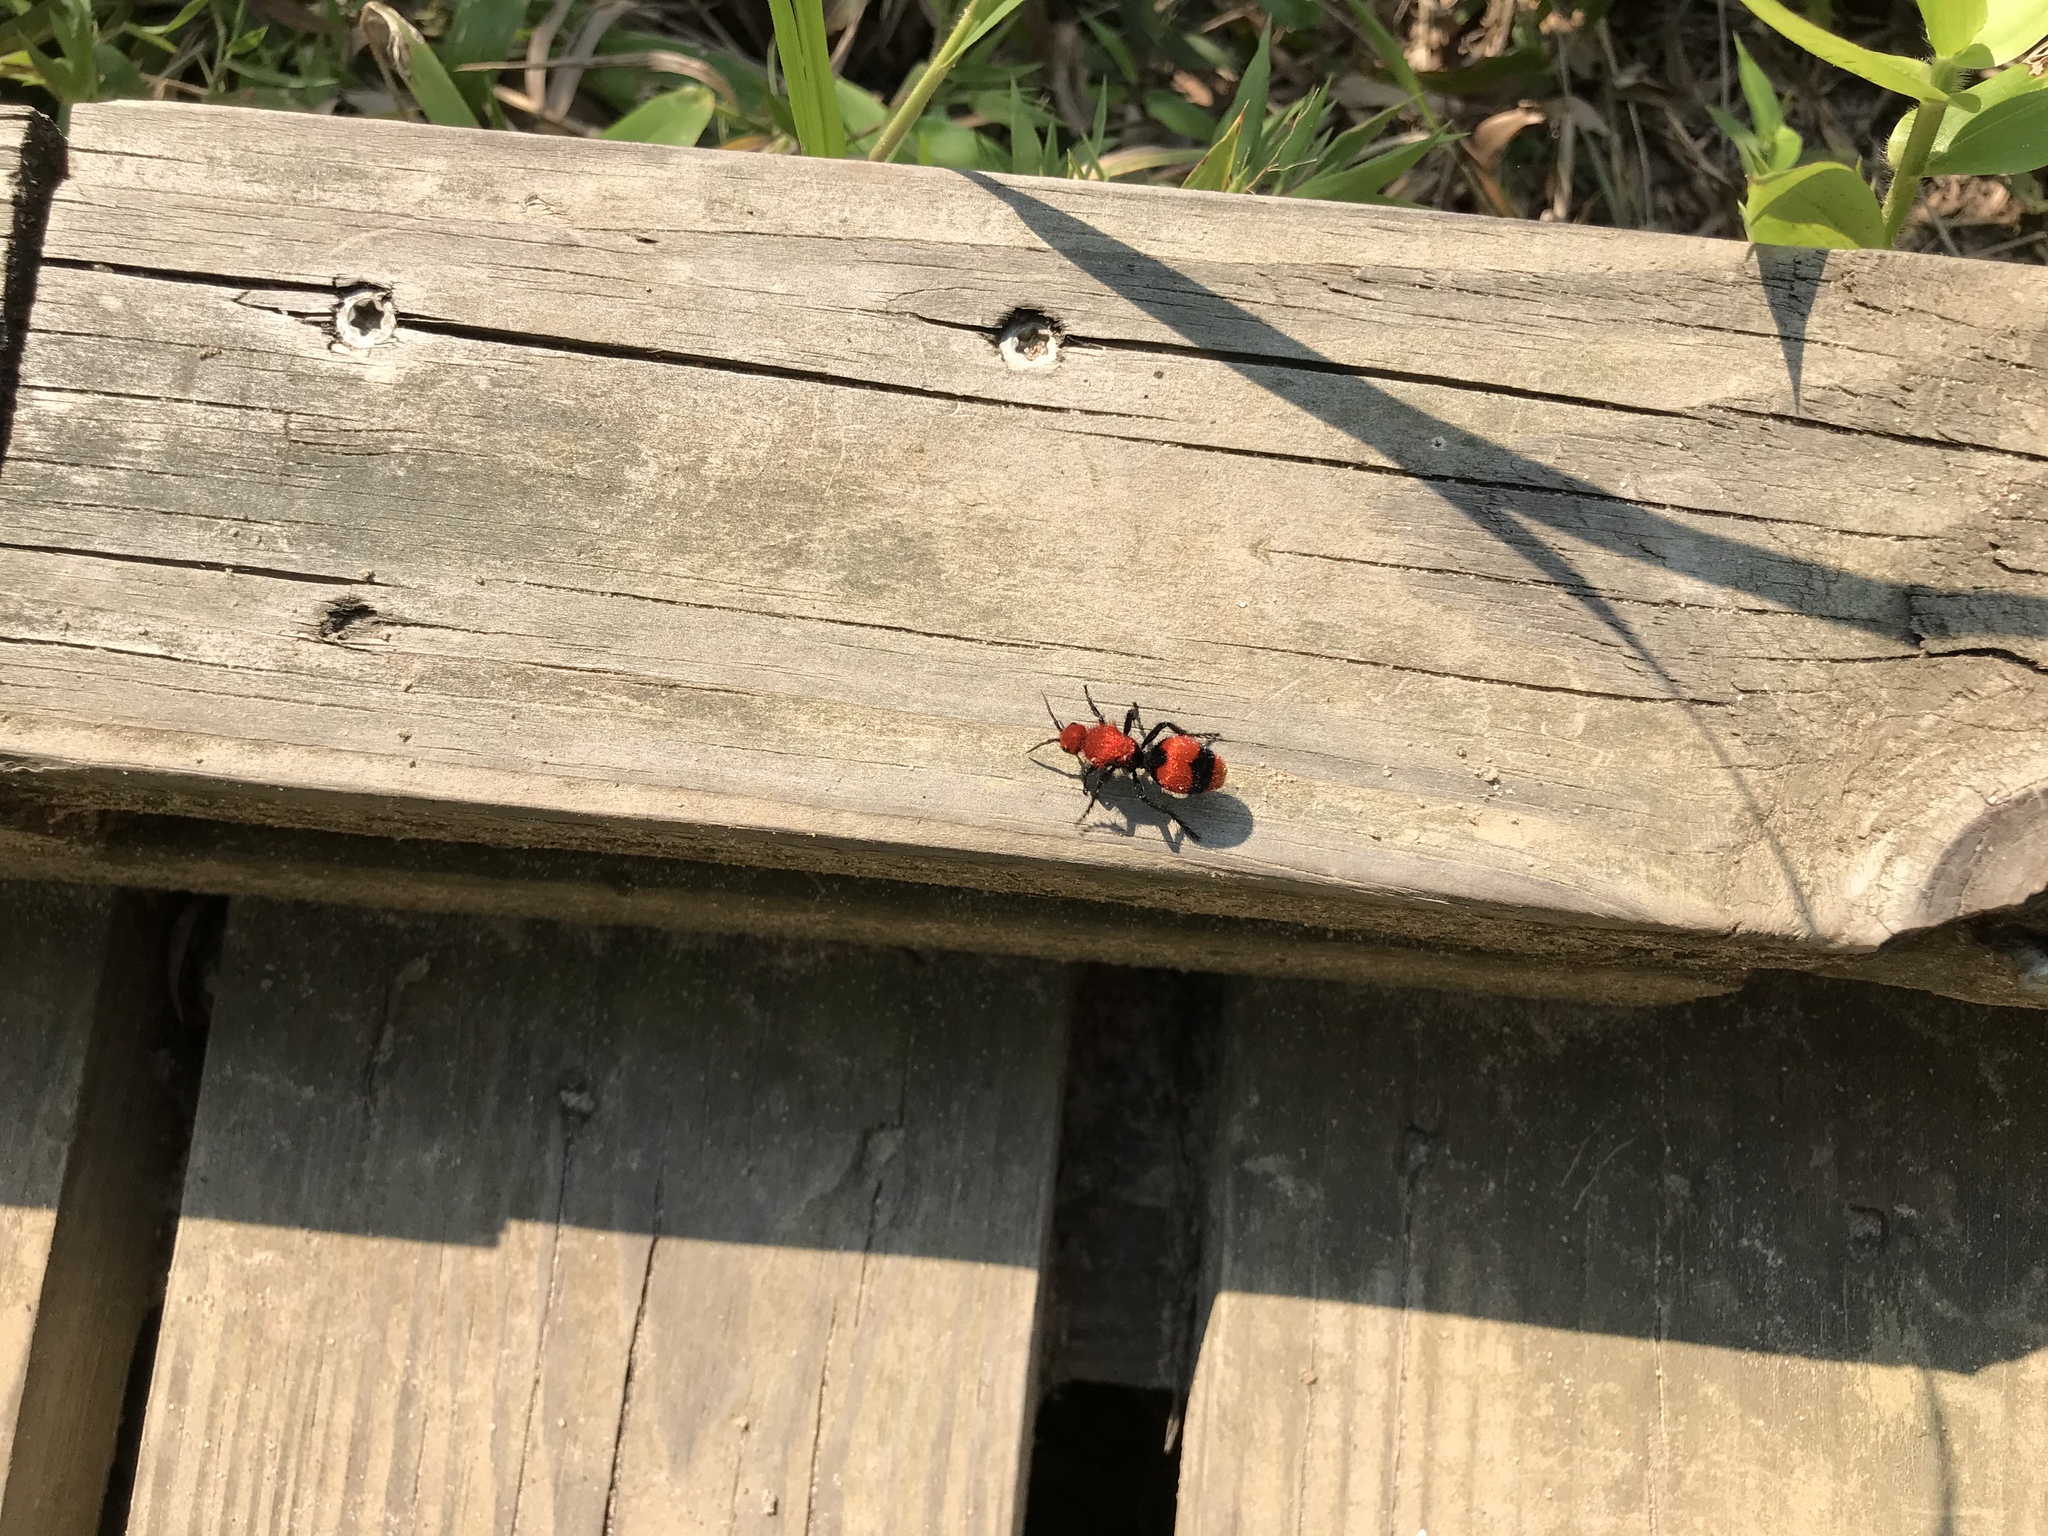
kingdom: Animalia
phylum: Arthropoda
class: Insecta
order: Hymenoptera
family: Mutillidae
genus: Dasymutilla
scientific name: Dasymutilla occidentalis
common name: Common eastern velvet ant
